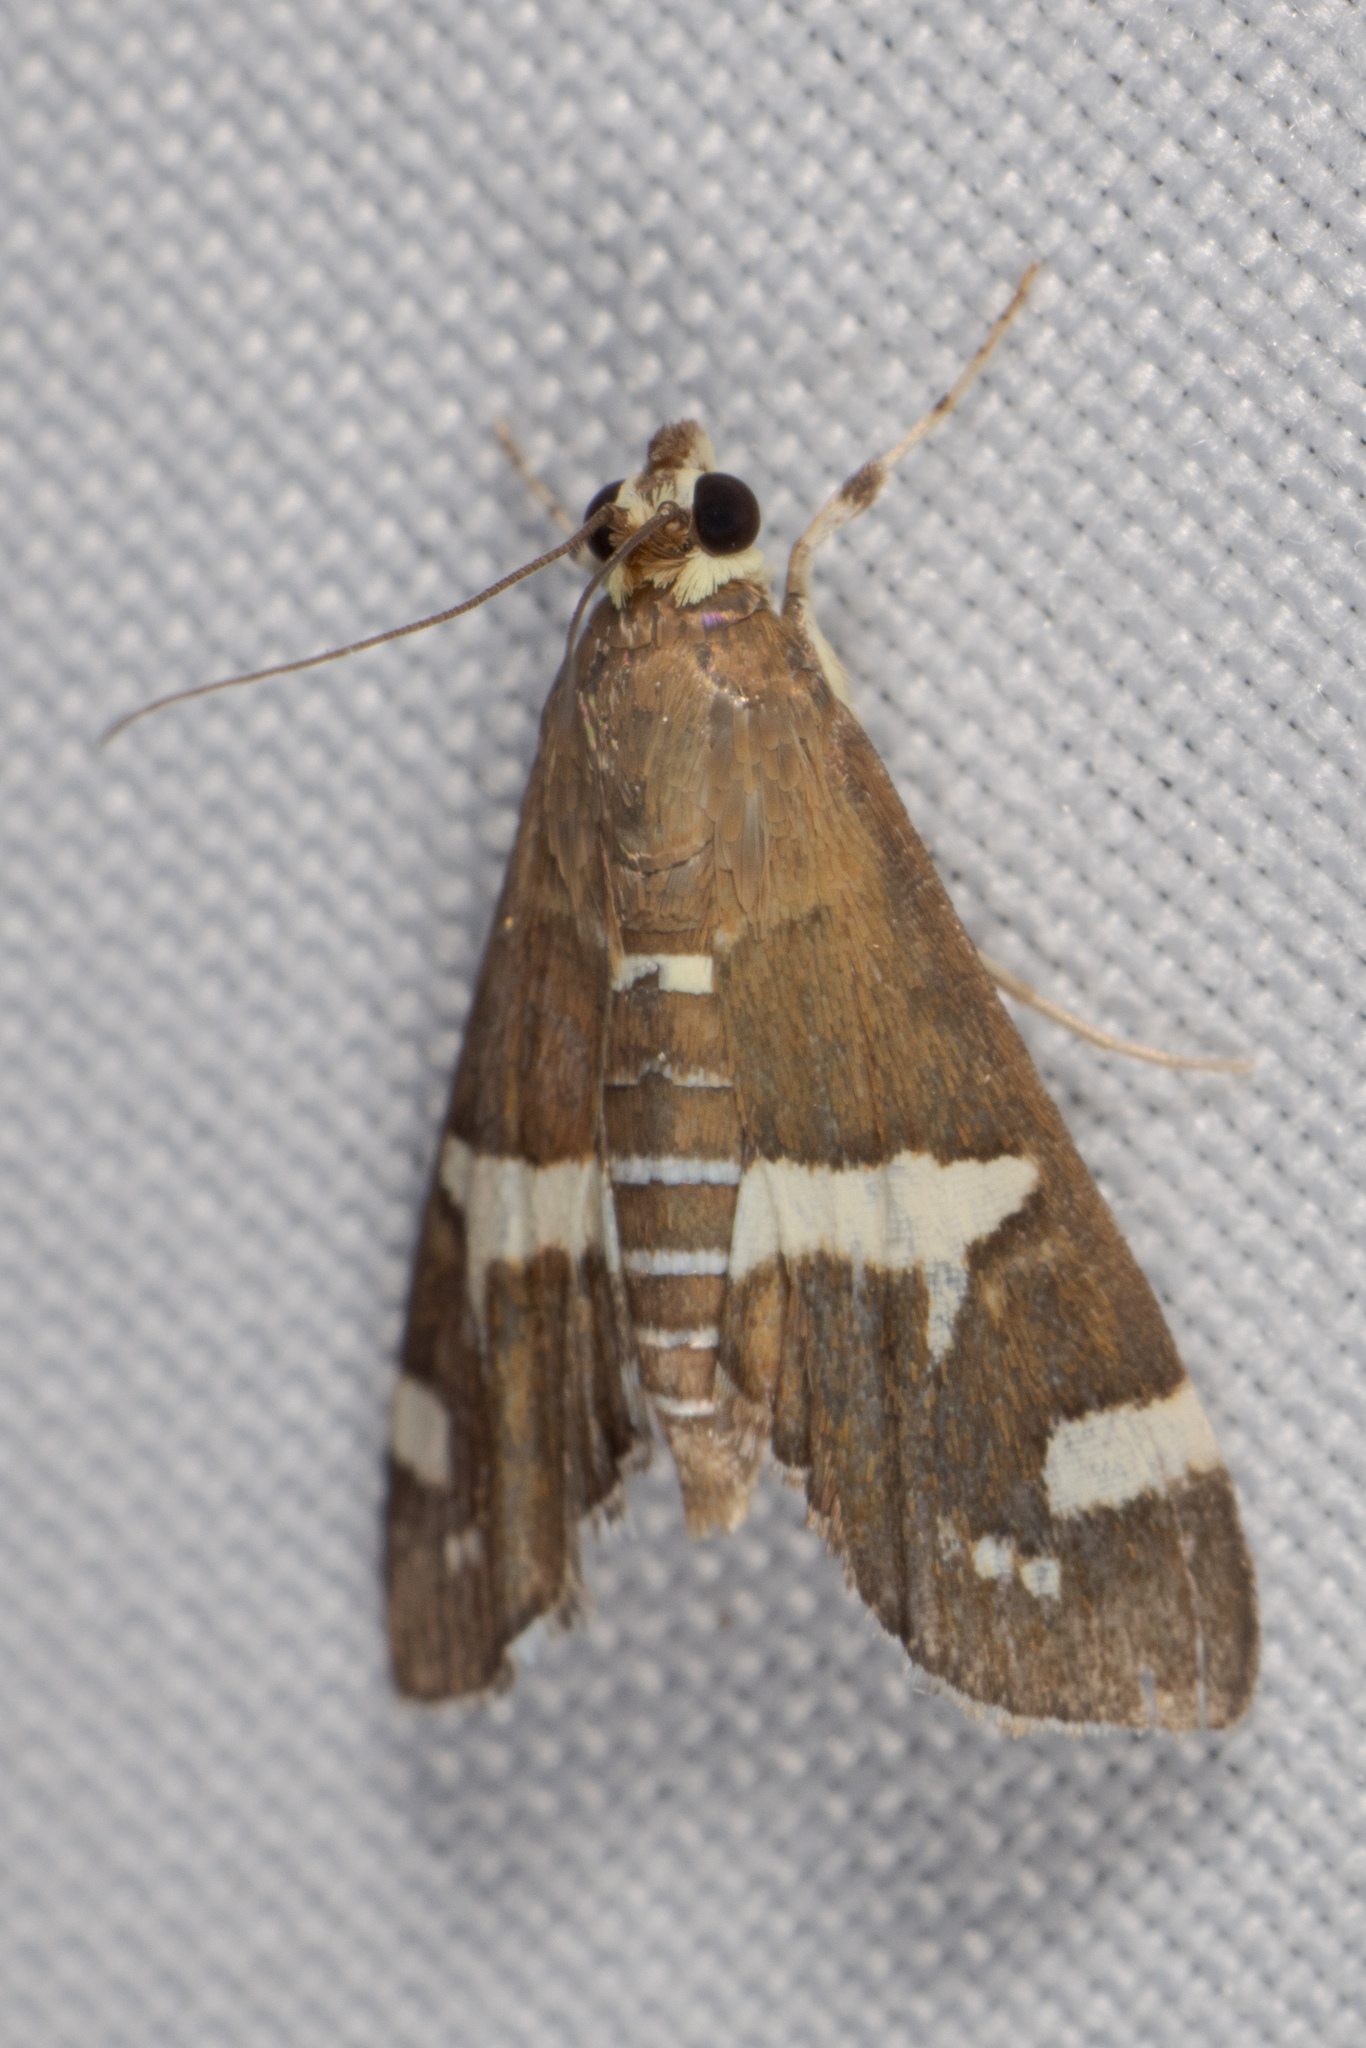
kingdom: Animalia
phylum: Arthropoda
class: Insecta
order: Lepidoptera
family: Crambidae
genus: Spoladea
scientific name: Spoladea recurvalis
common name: Beet webworm moth
